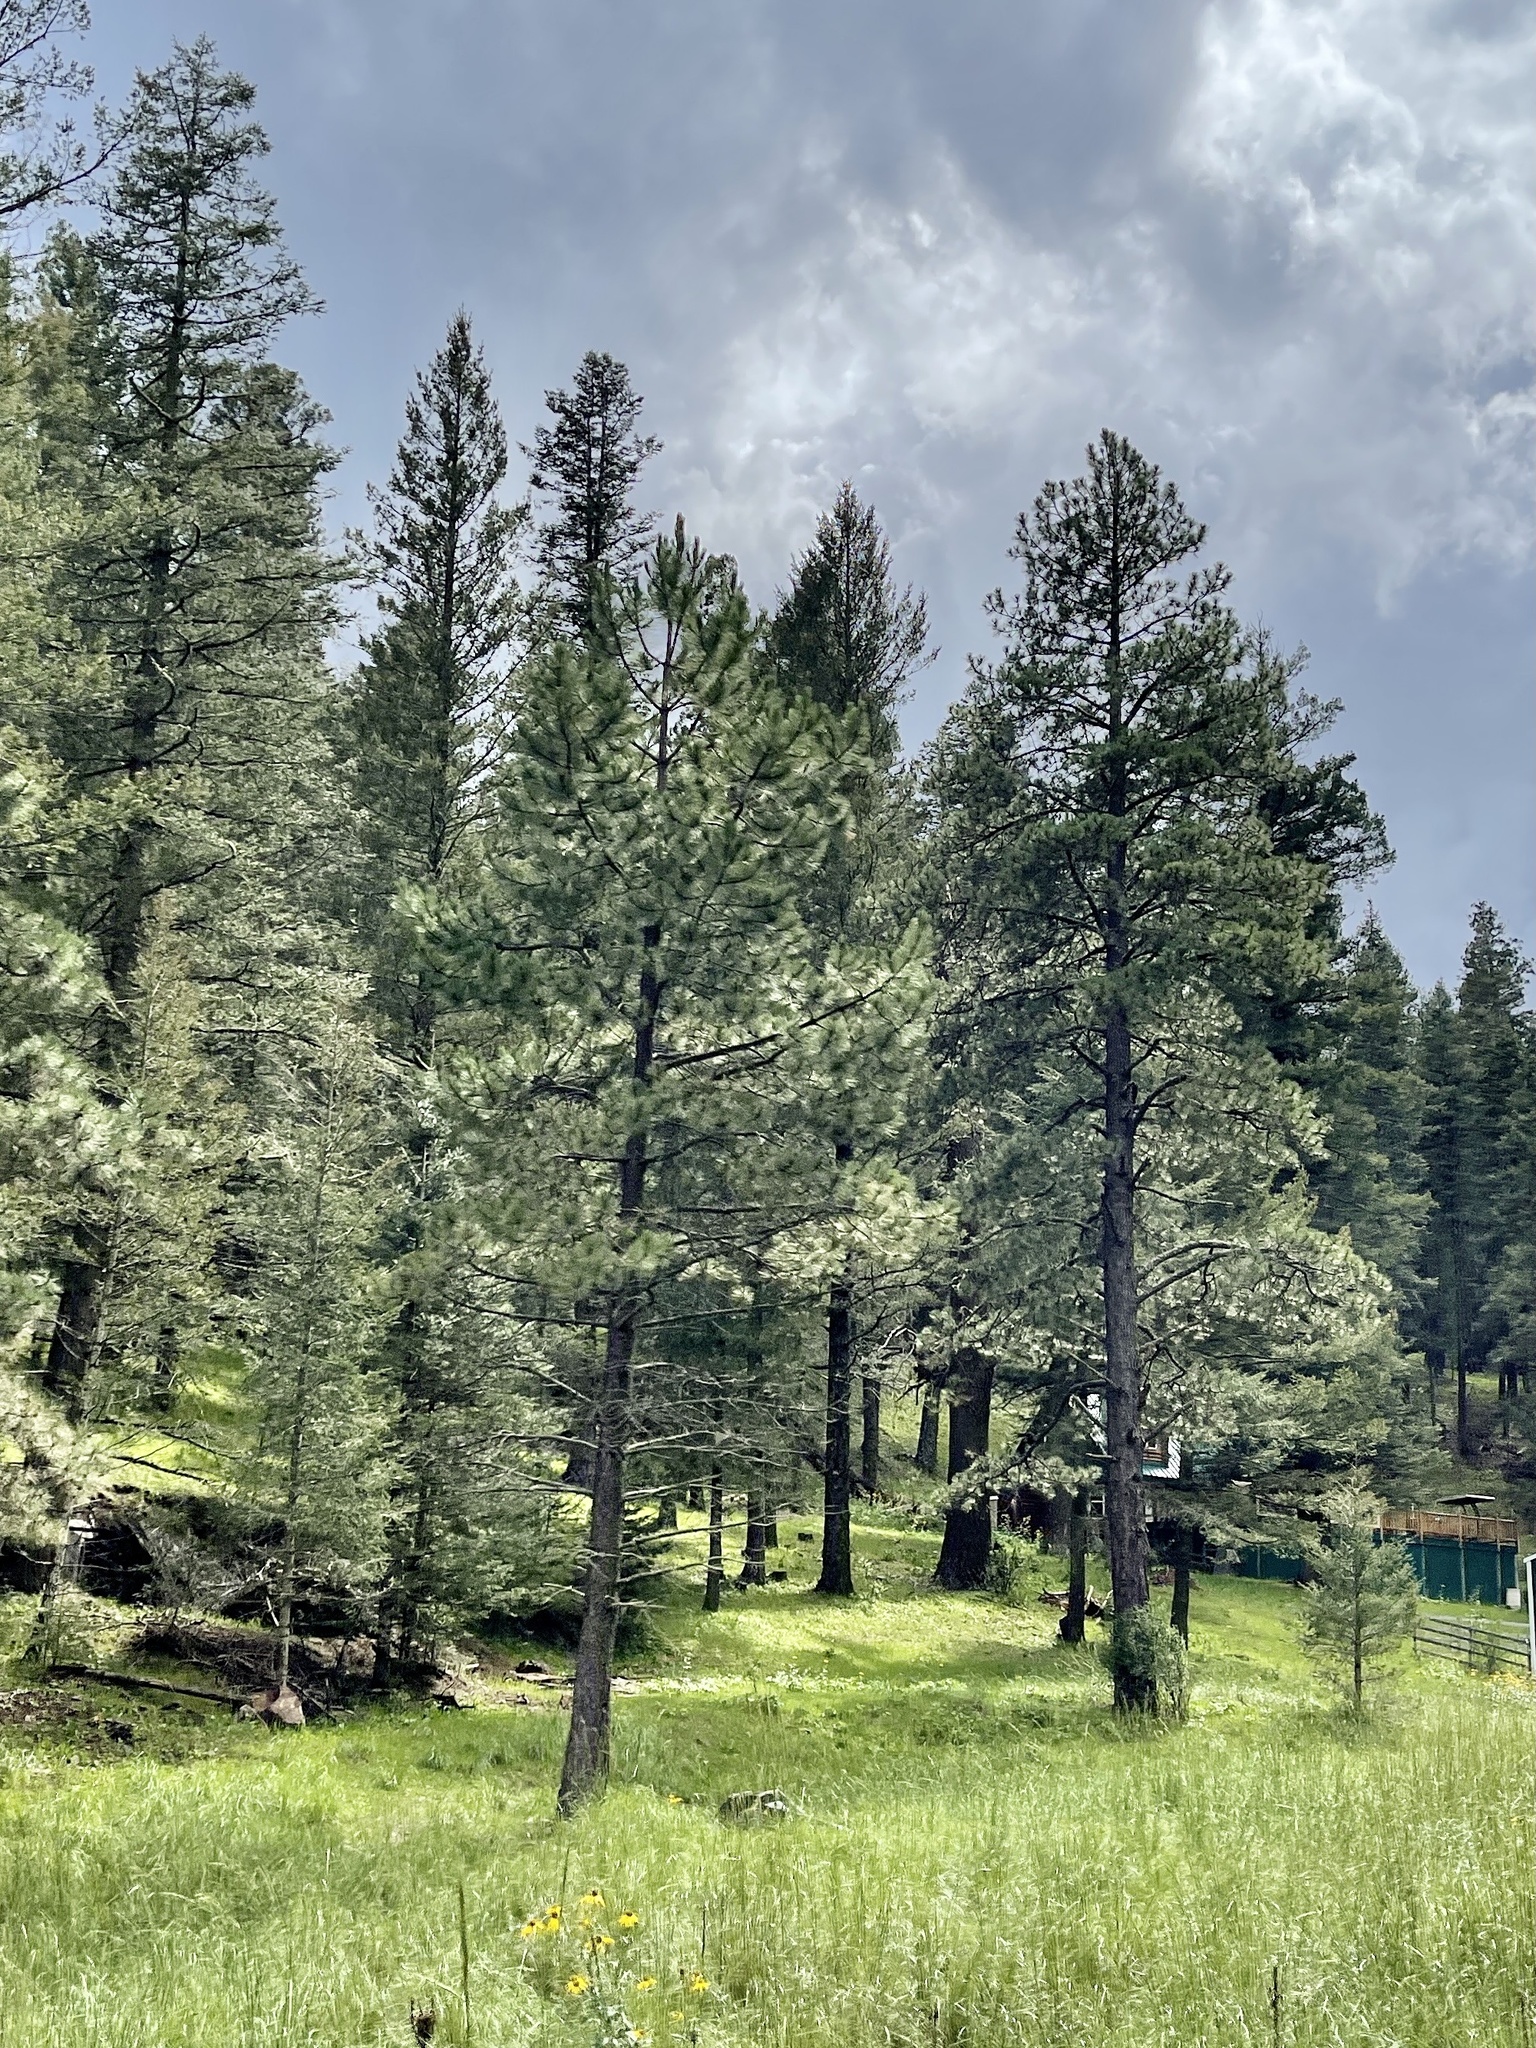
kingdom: Plantae
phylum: Tracheophyta
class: Pinopsida
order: Pinales
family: Pinaceae
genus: Pinus
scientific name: Pinus ponderosa
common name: Western yellow-pine
